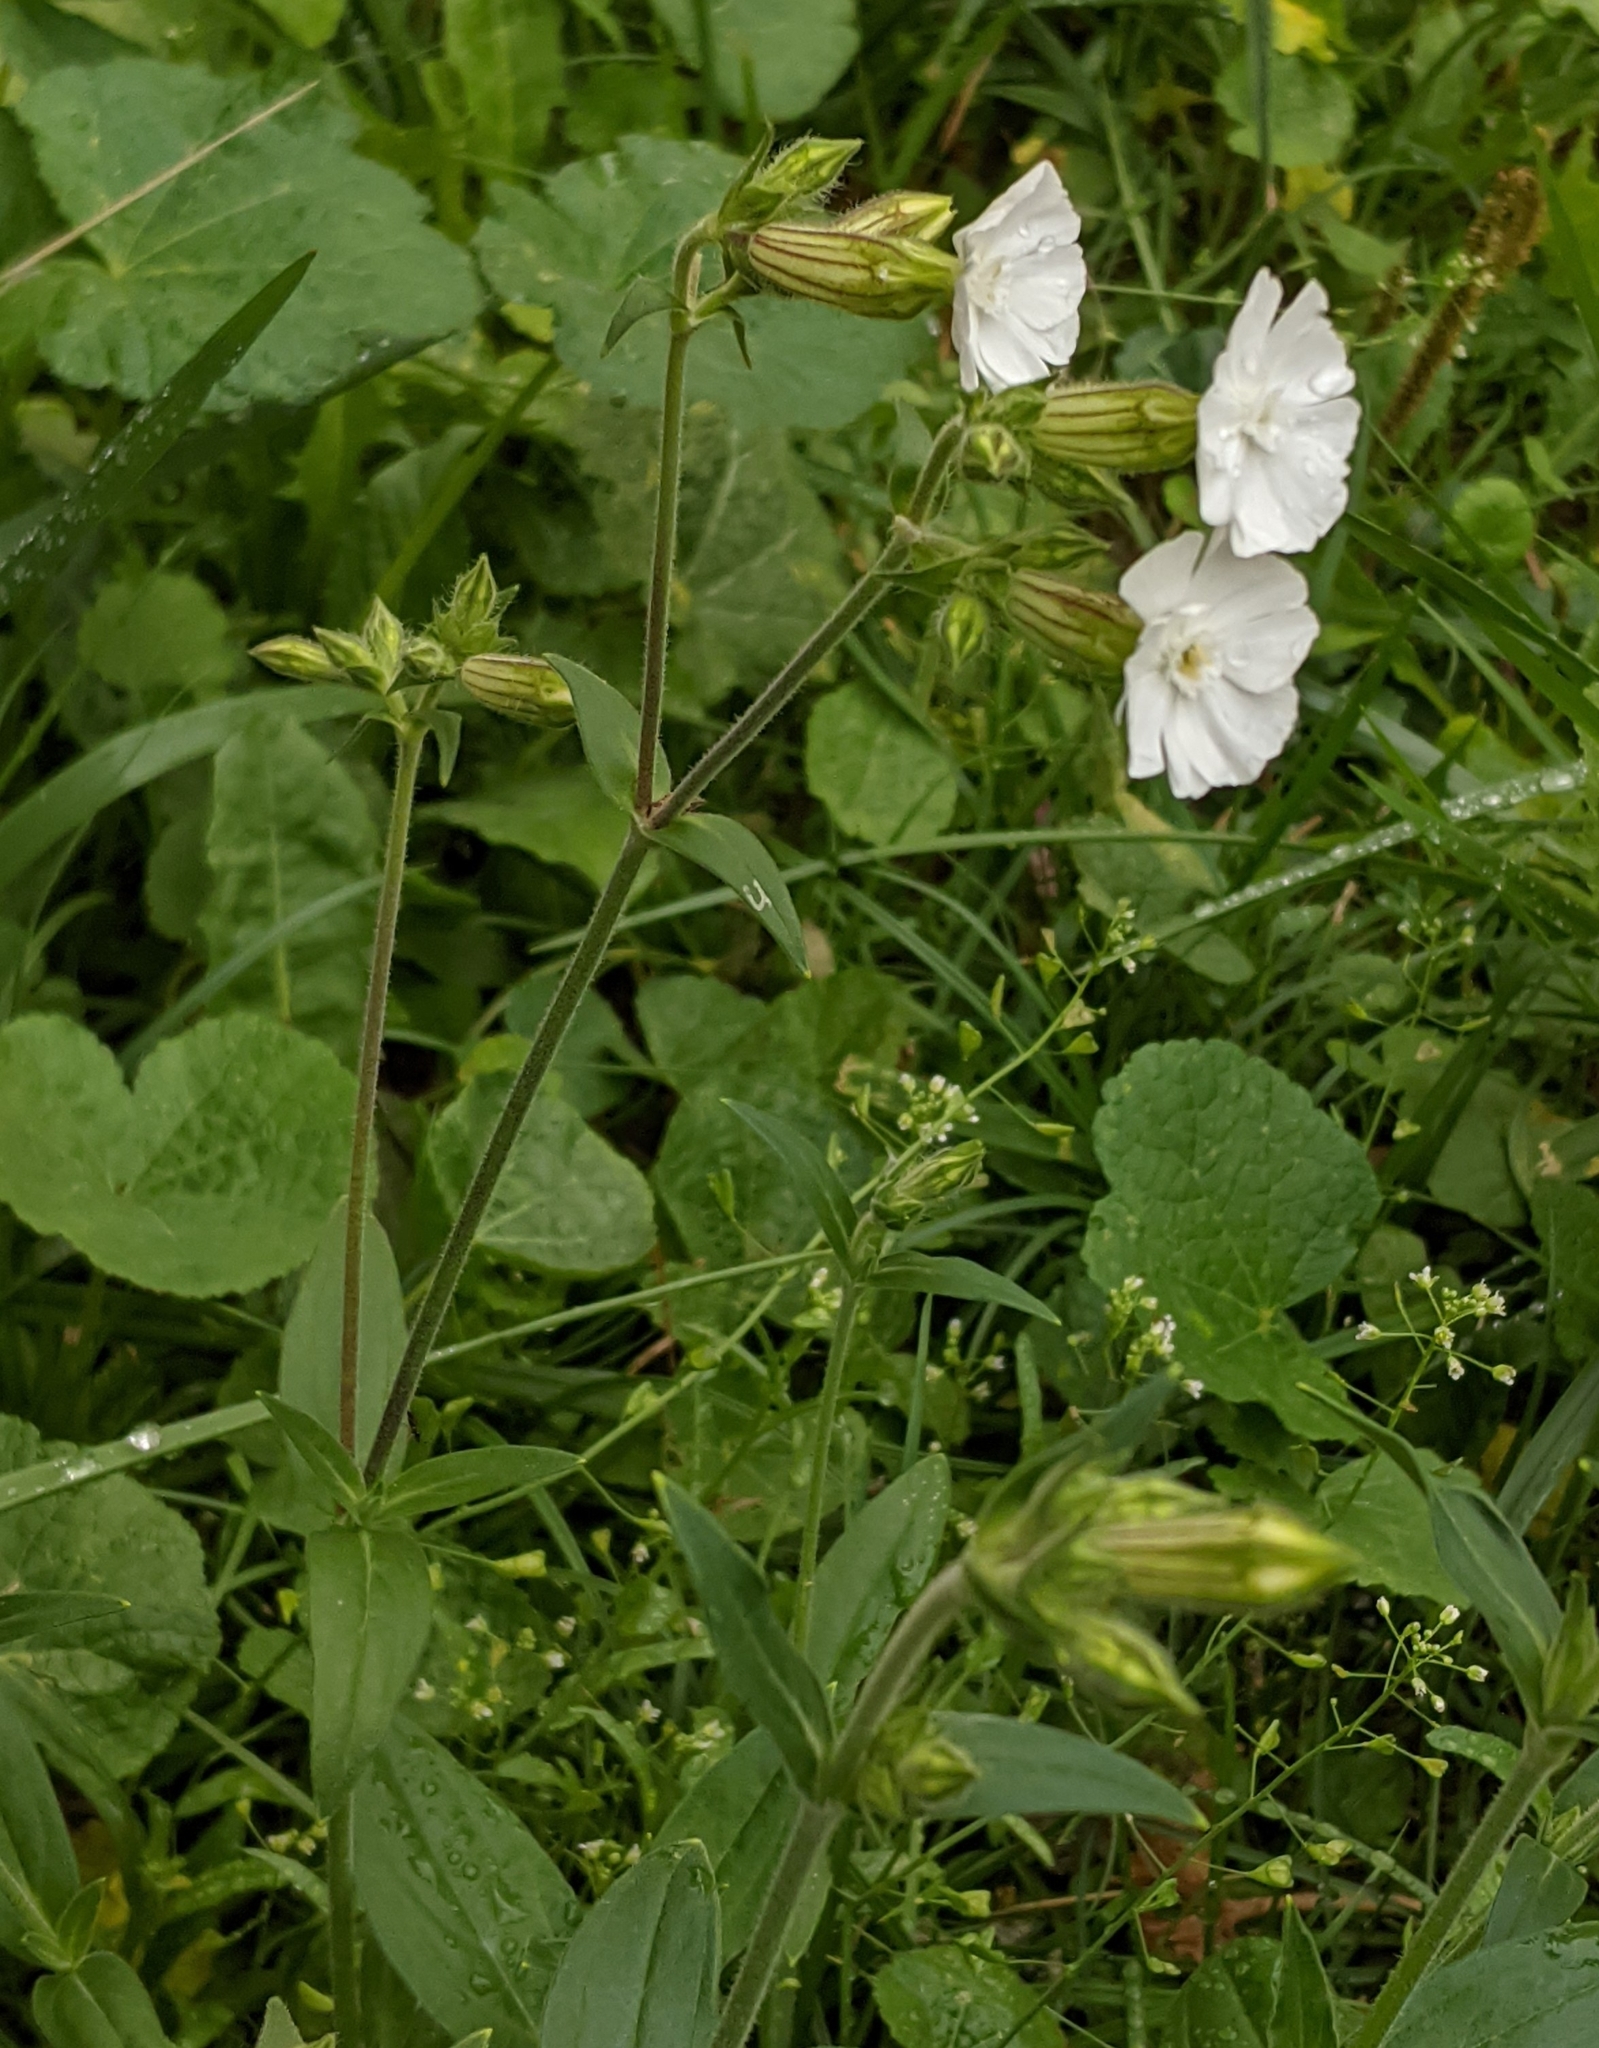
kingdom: Plantae
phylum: Tracheophyta
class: Magnoliopsida
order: Caryophyllales
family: Caryophyllaceae
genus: Silene
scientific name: Silene latifolia
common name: White campion
